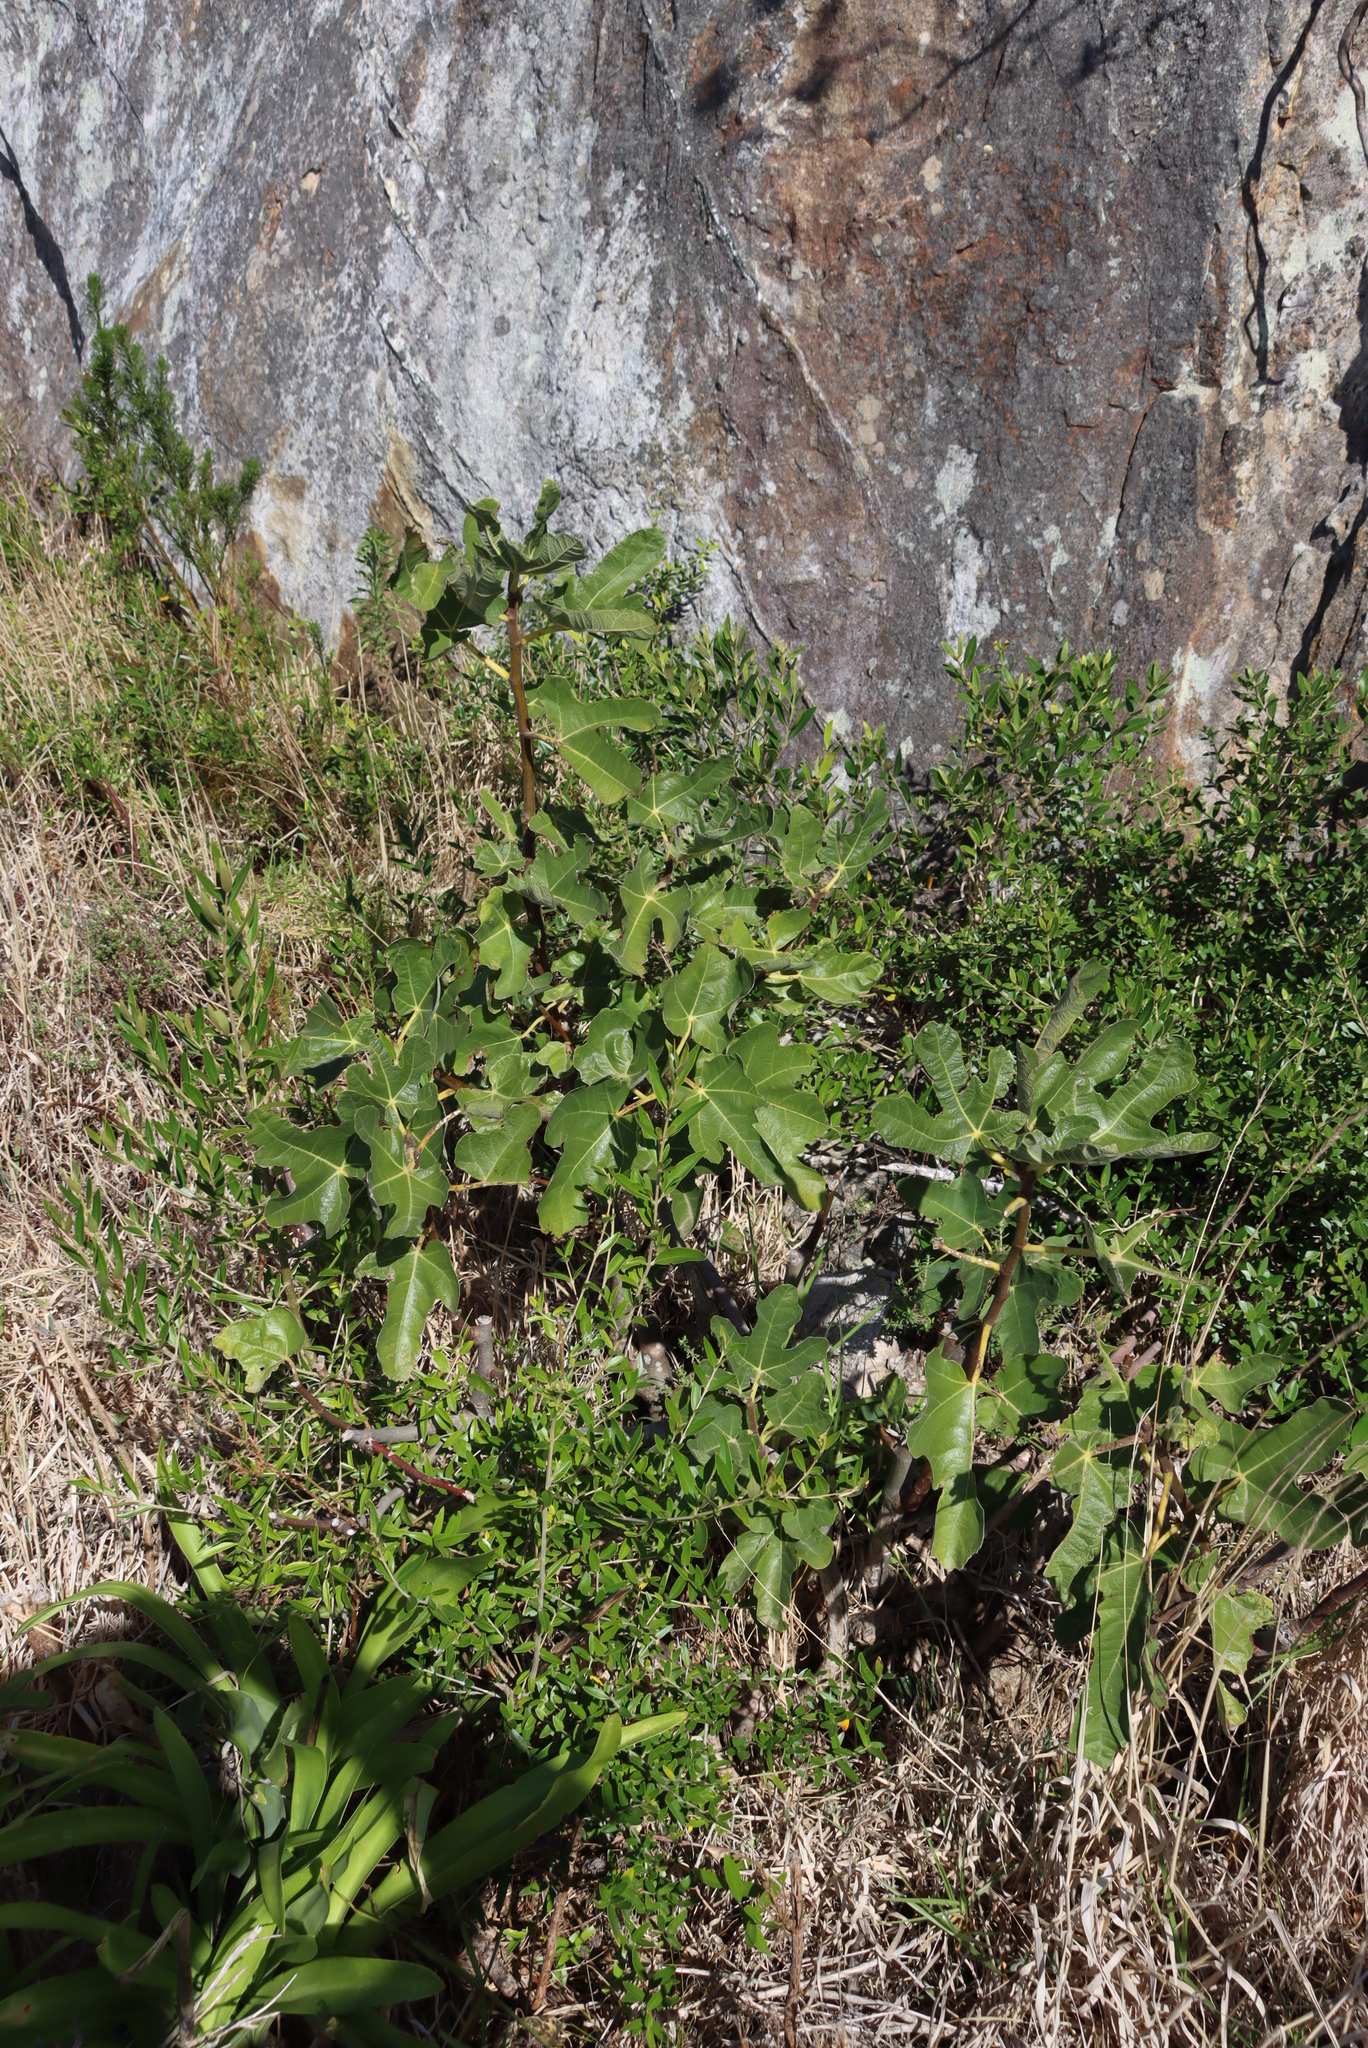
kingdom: Plantae
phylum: Tracheophyta
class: Magnoliopsida
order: Rosales
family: Moraceae
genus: Ficus
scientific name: Ficus carica
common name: Fig
